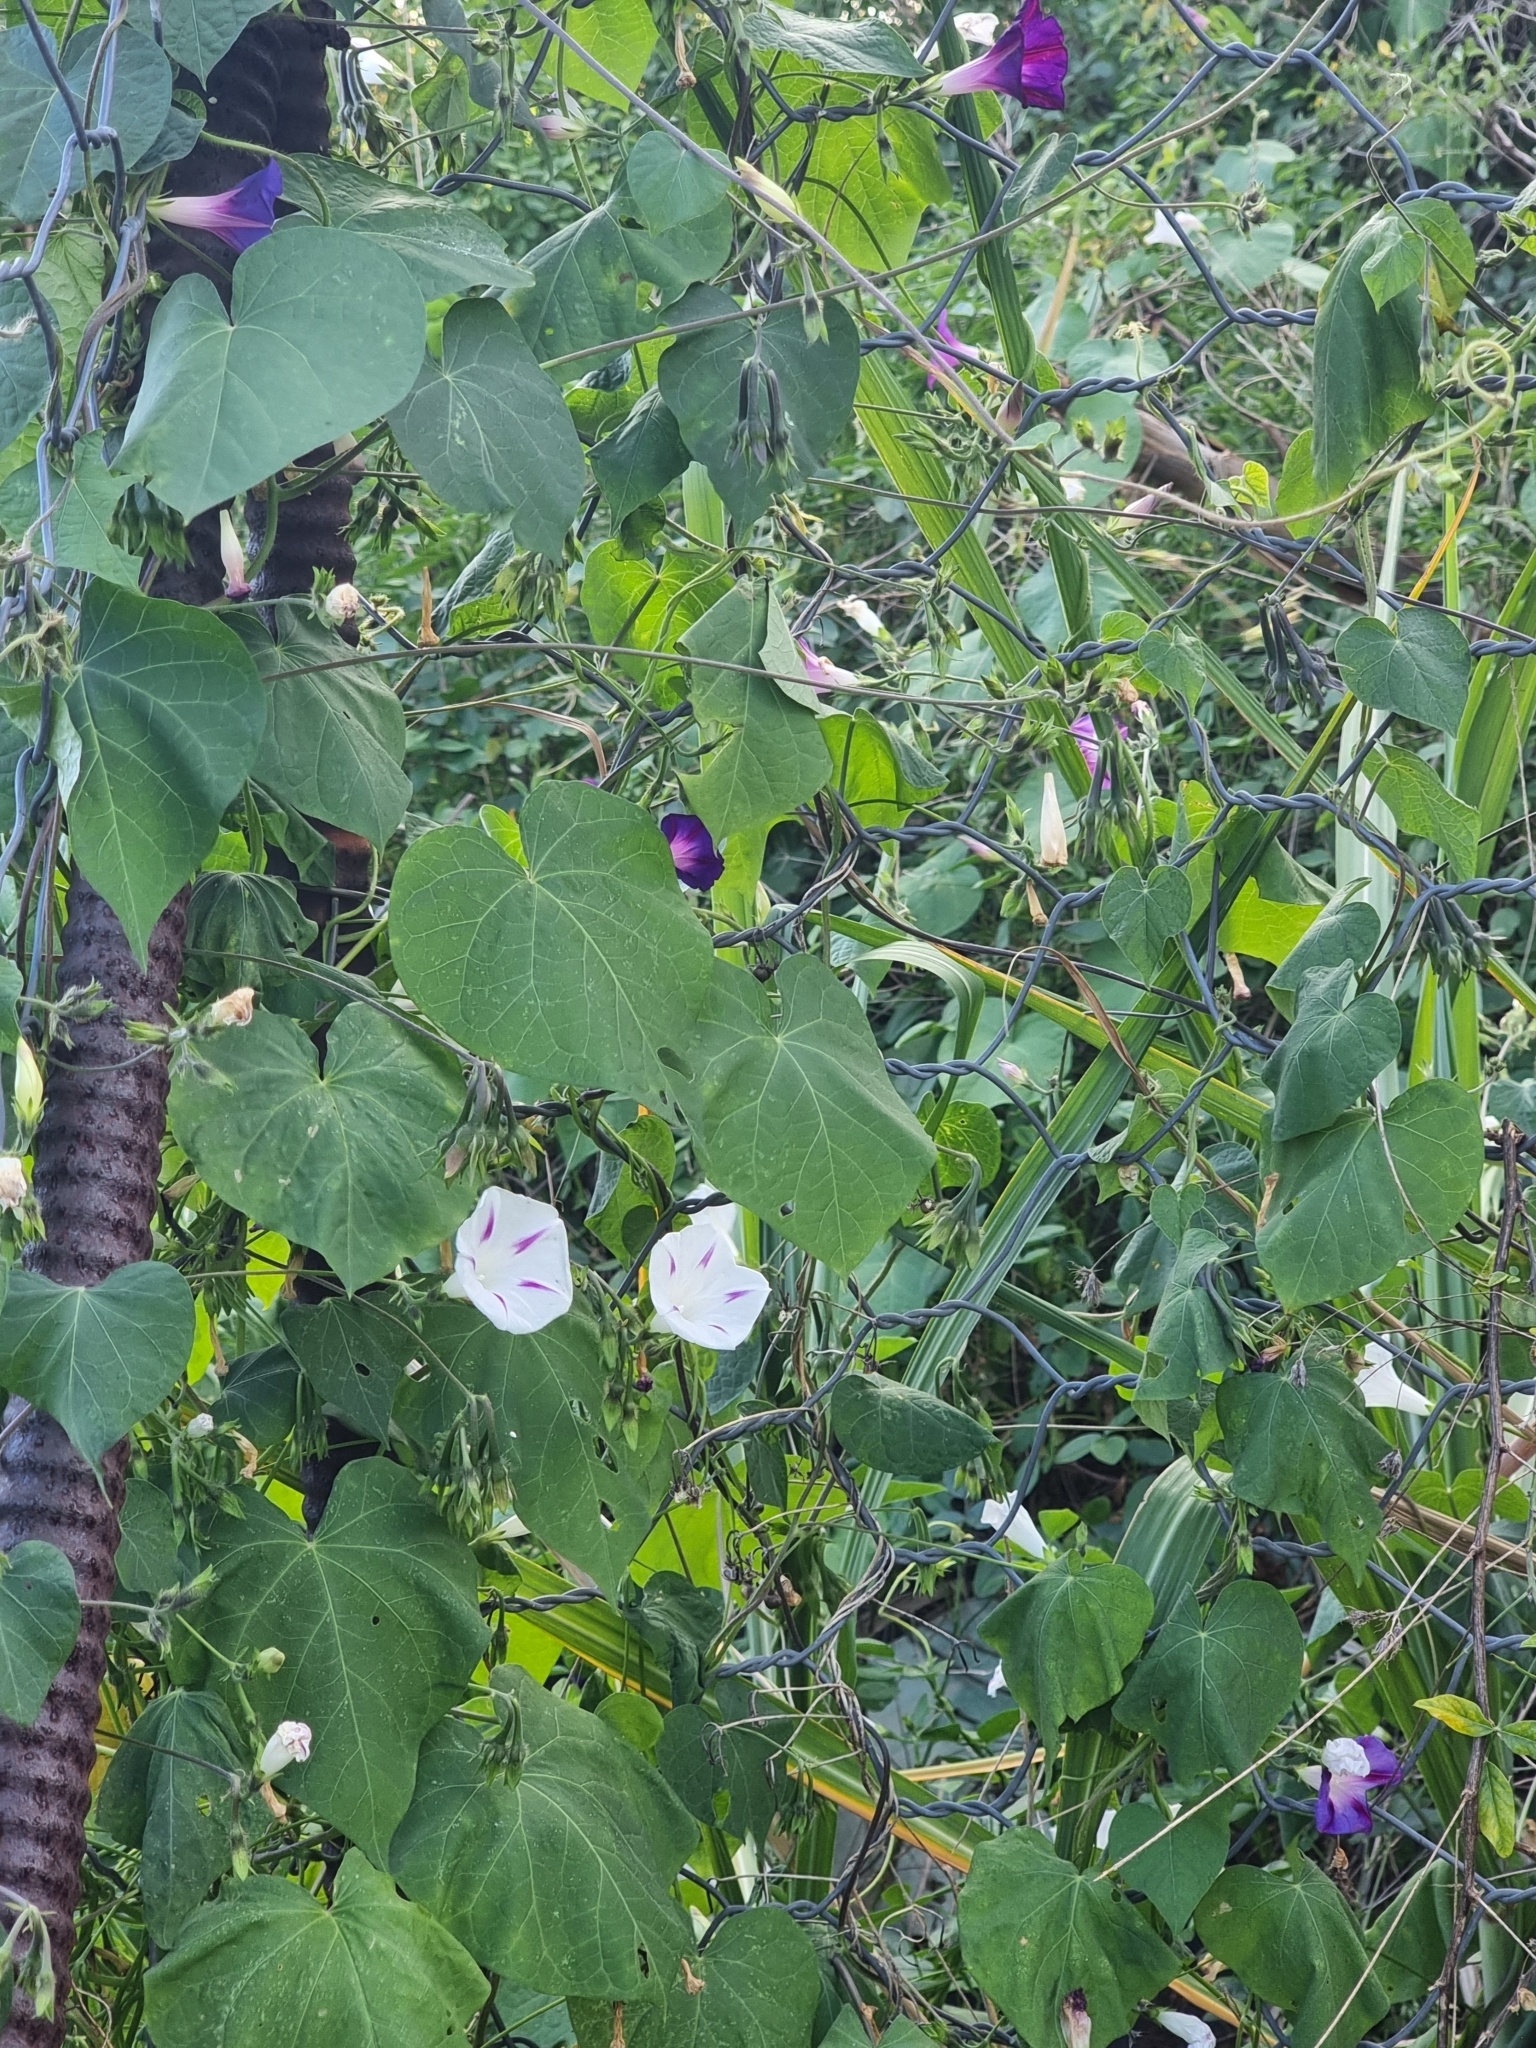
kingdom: Plantae
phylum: Tracheophyta
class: Magnoliopsida
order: Solanales
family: Convolvulaceae
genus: Ipomoea
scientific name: Ipomoea purpurea
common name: Common morning-glory
